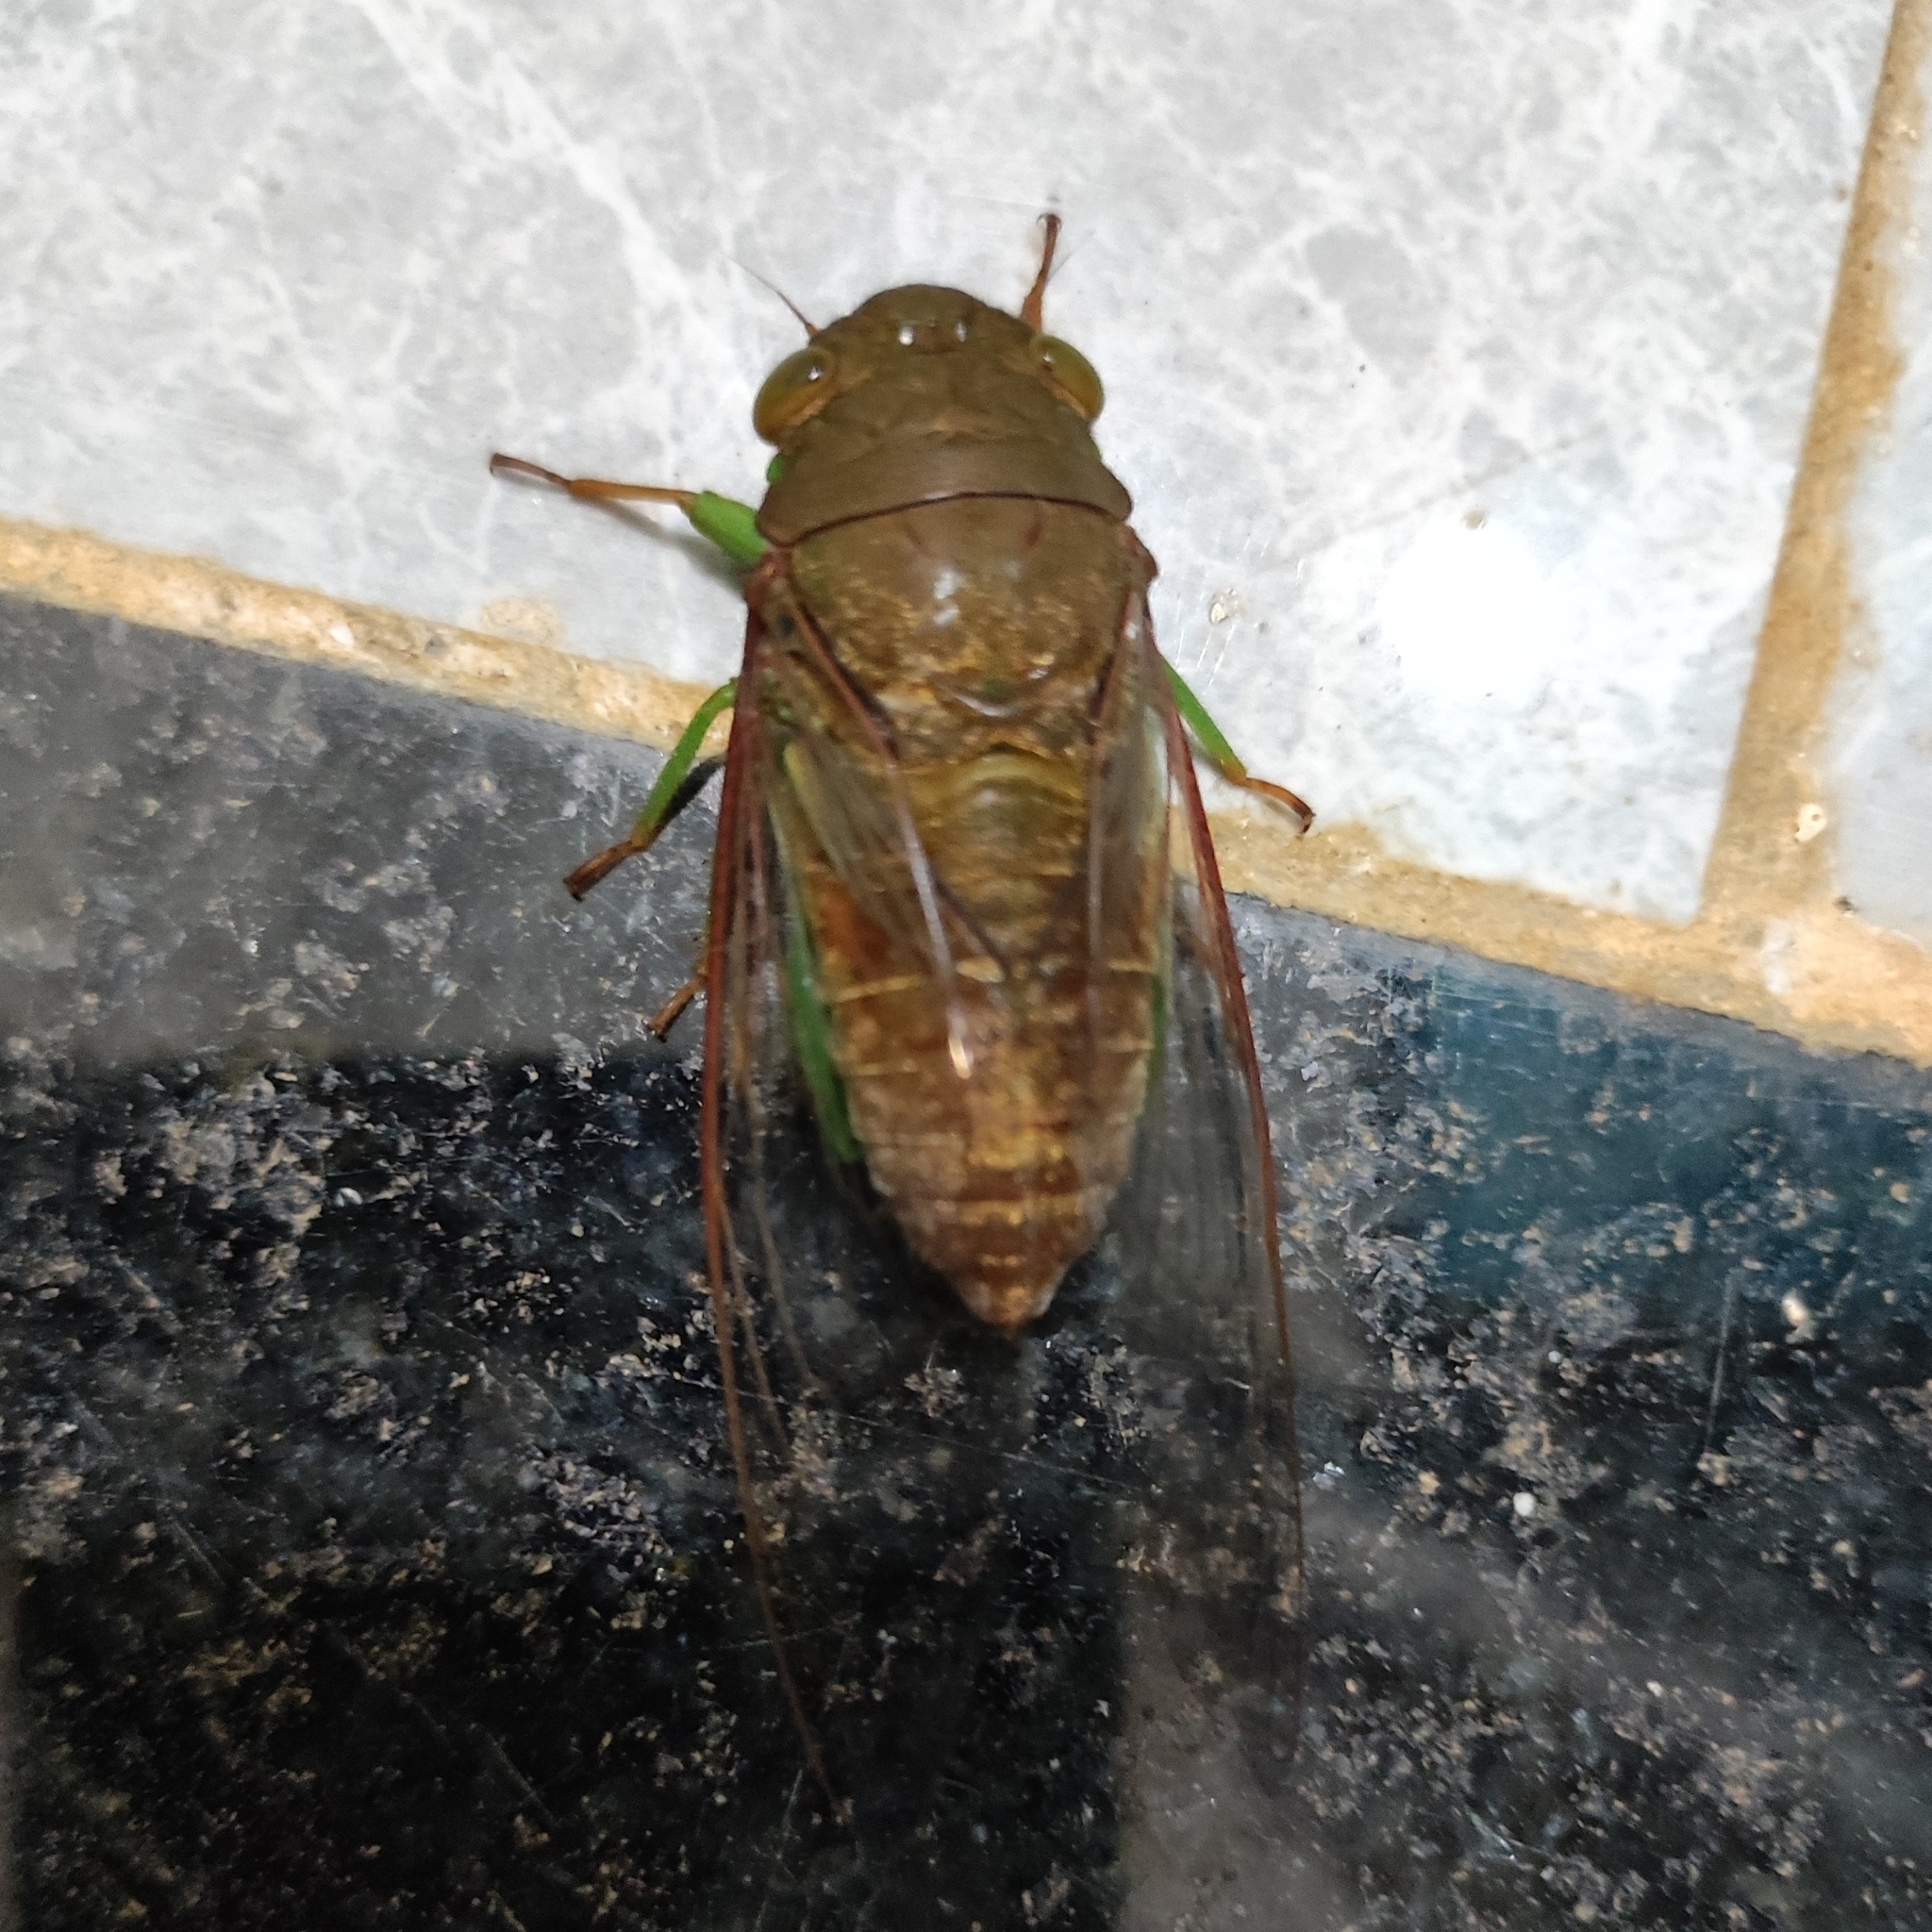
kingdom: Animalia
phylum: Arthropoda
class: Insecta
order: Hemiptera
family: Cicadidae
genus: Dundubia
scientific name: Dundubia spiculata
